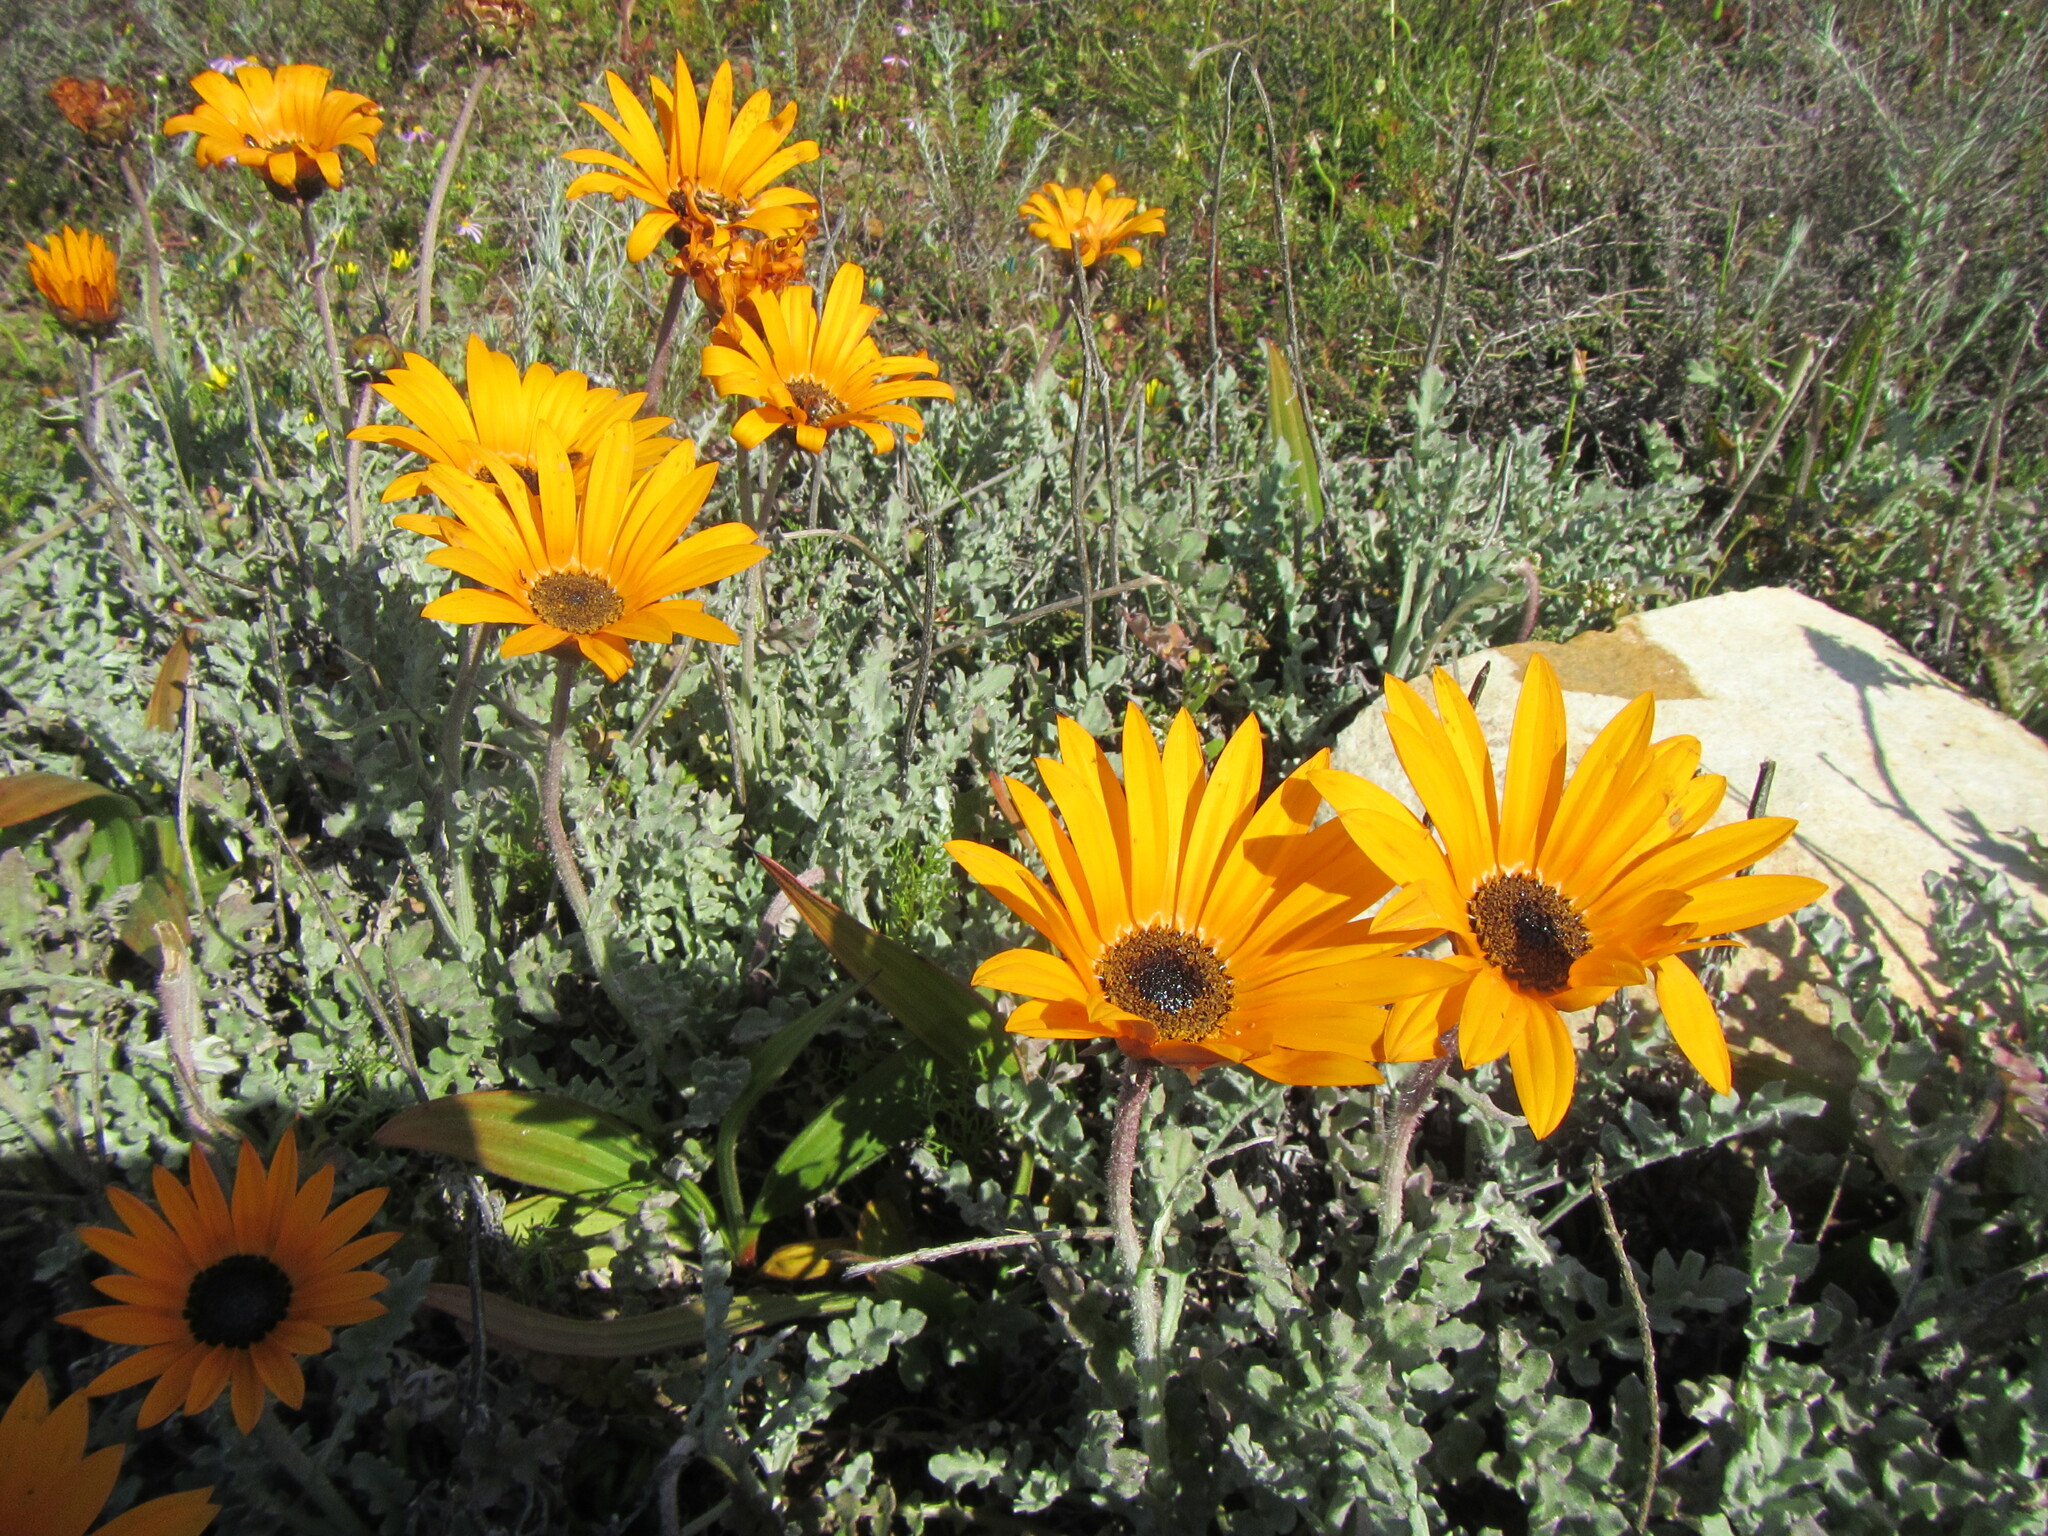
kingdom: Plantae
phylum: Tracheophyta
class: Magnoliopsida
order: Asterales
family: Asteraceae
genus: Arctotis
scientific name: Arctotis revoluta
